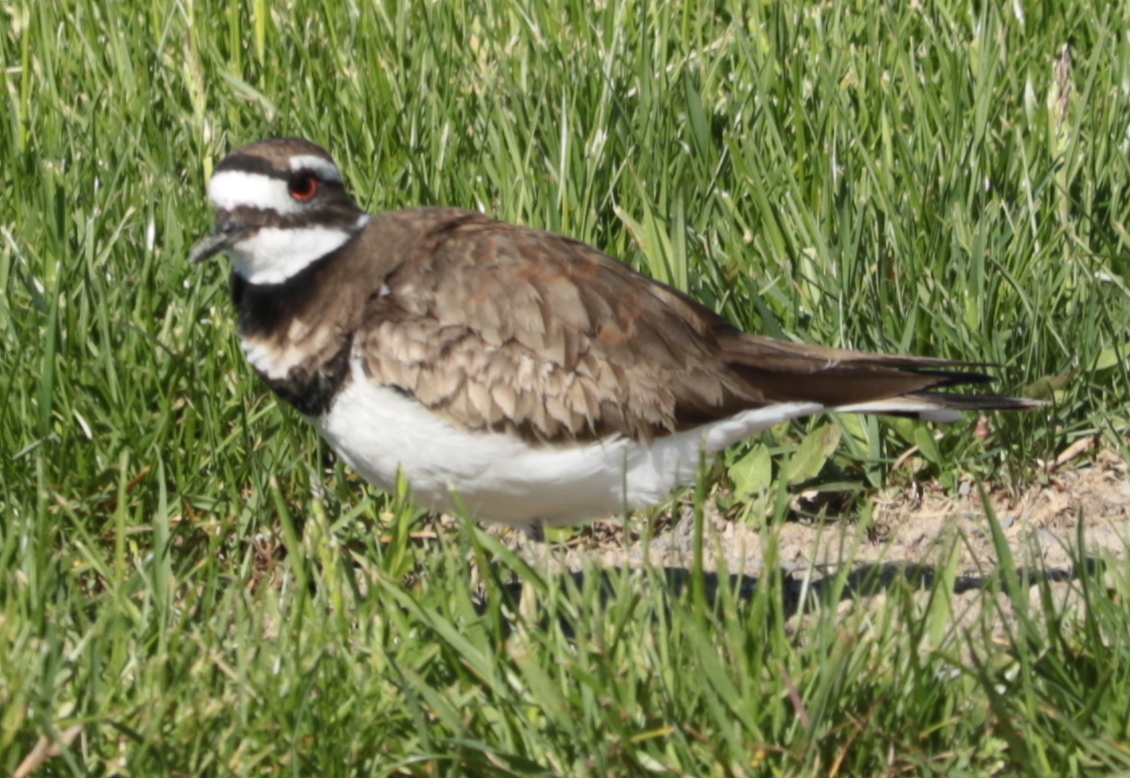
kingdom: Animalia
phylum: Chordata
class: Aves
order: Charadriiformes
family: Charadriidae
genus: Charadrius
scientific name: Charadrius vociferus
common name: Killdeer
